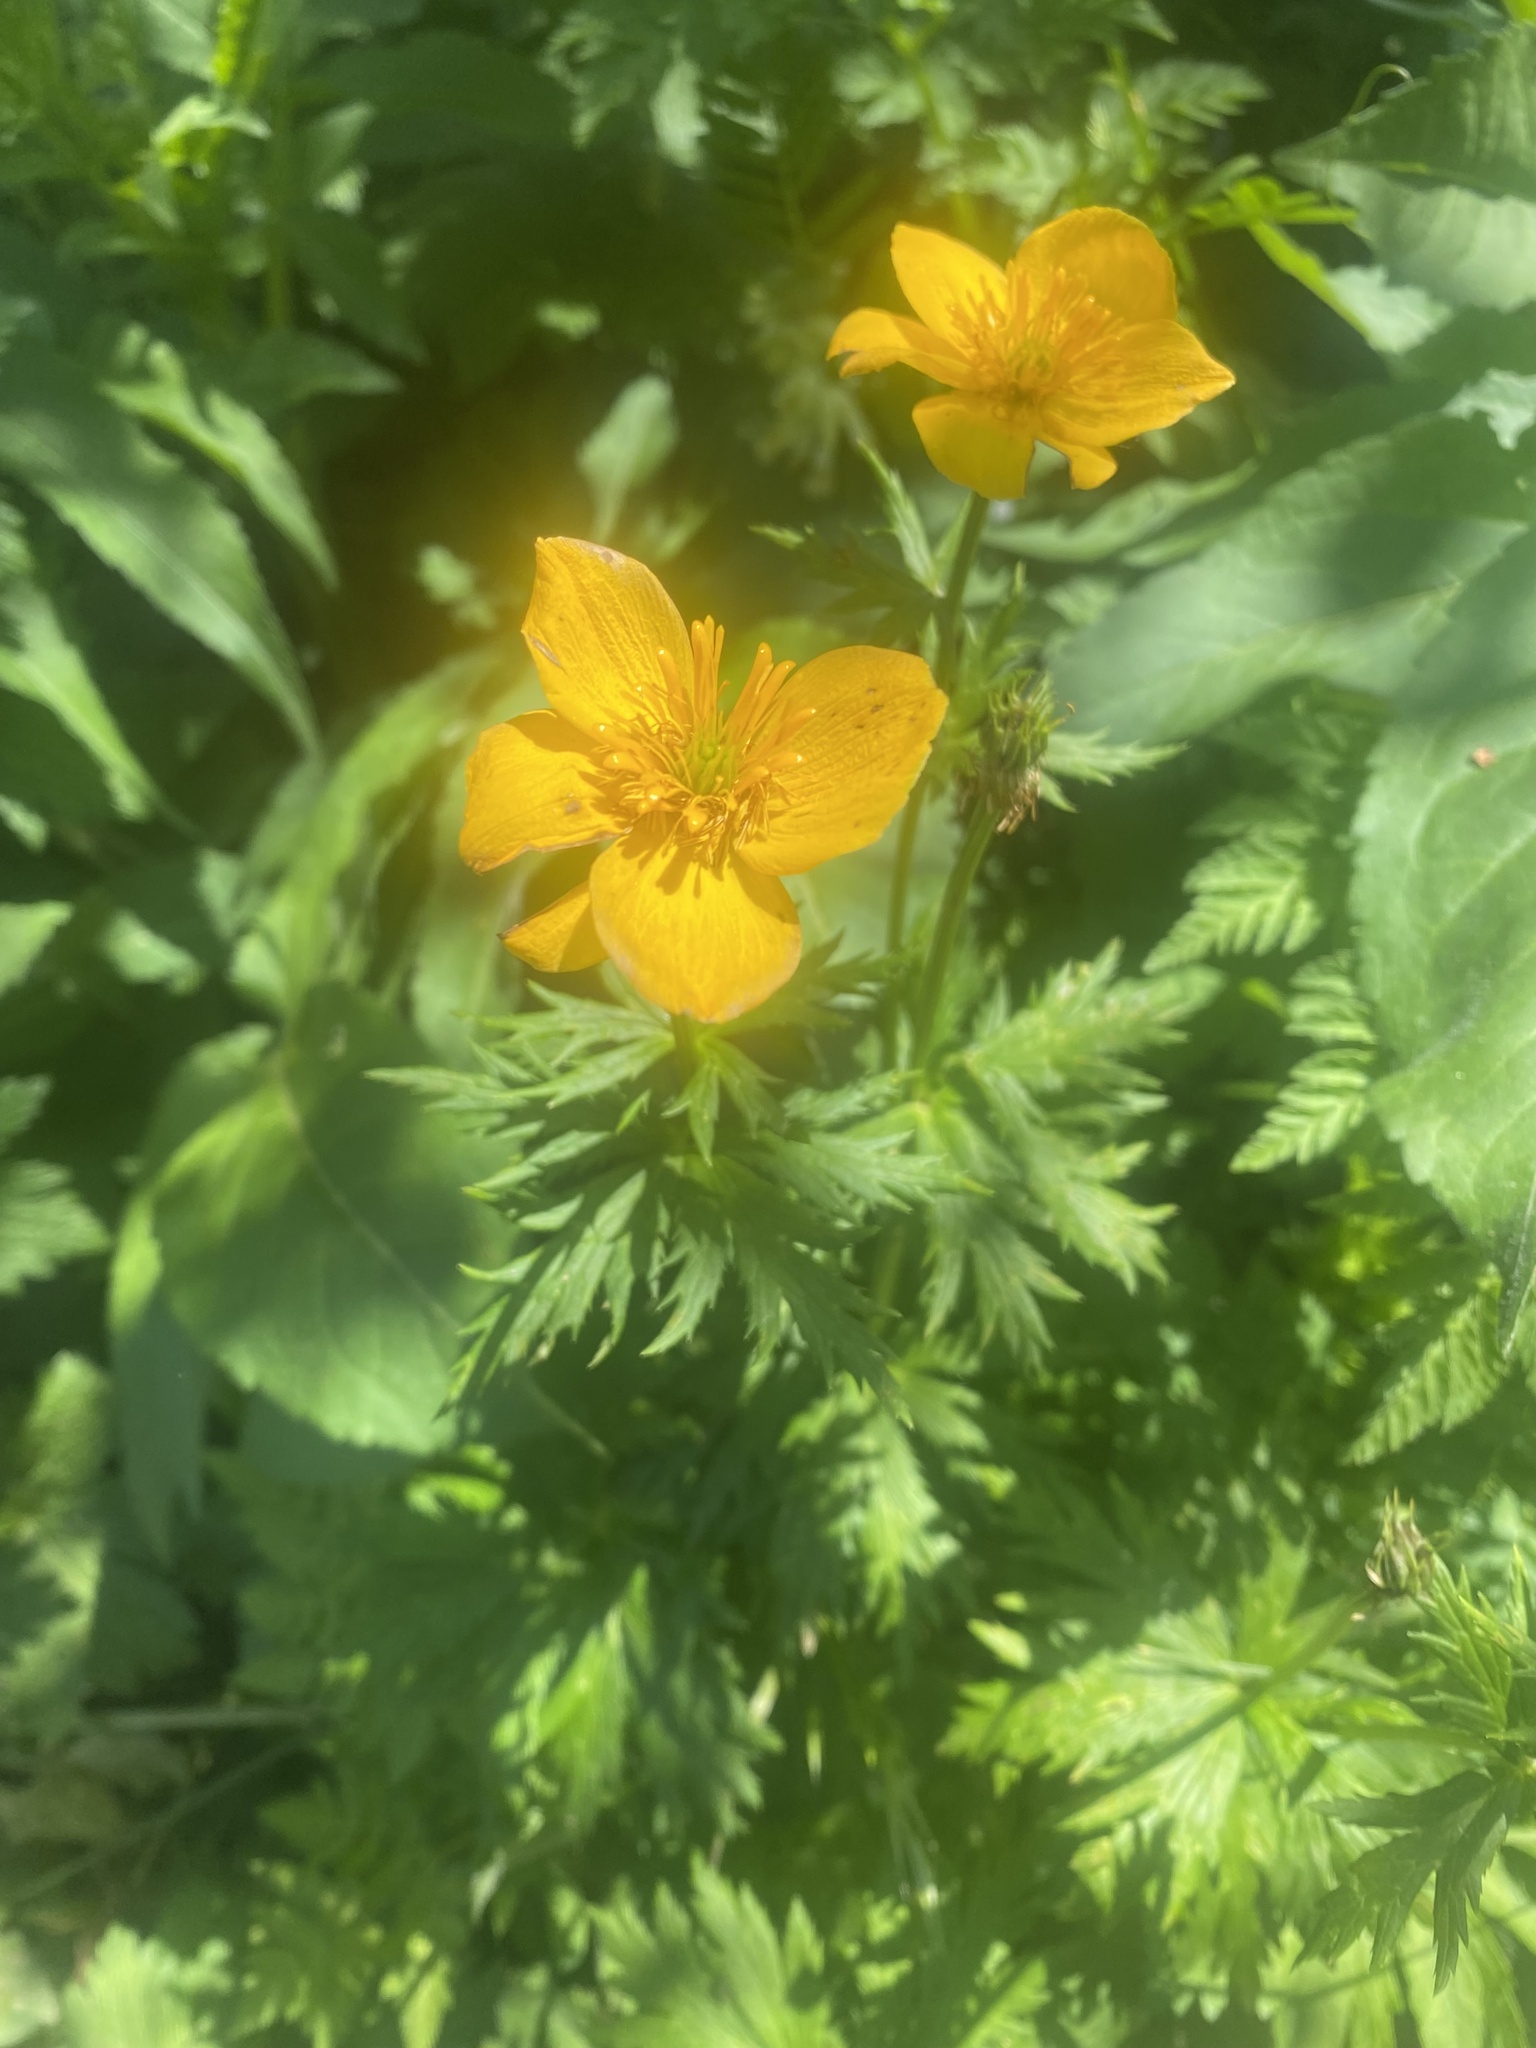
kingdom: Plantae
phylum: Tracheophyta
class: Magnoliopsida
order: Ranunculales
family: Ranunculaceae
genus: Trollius
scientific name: Trollius ranunculinus
